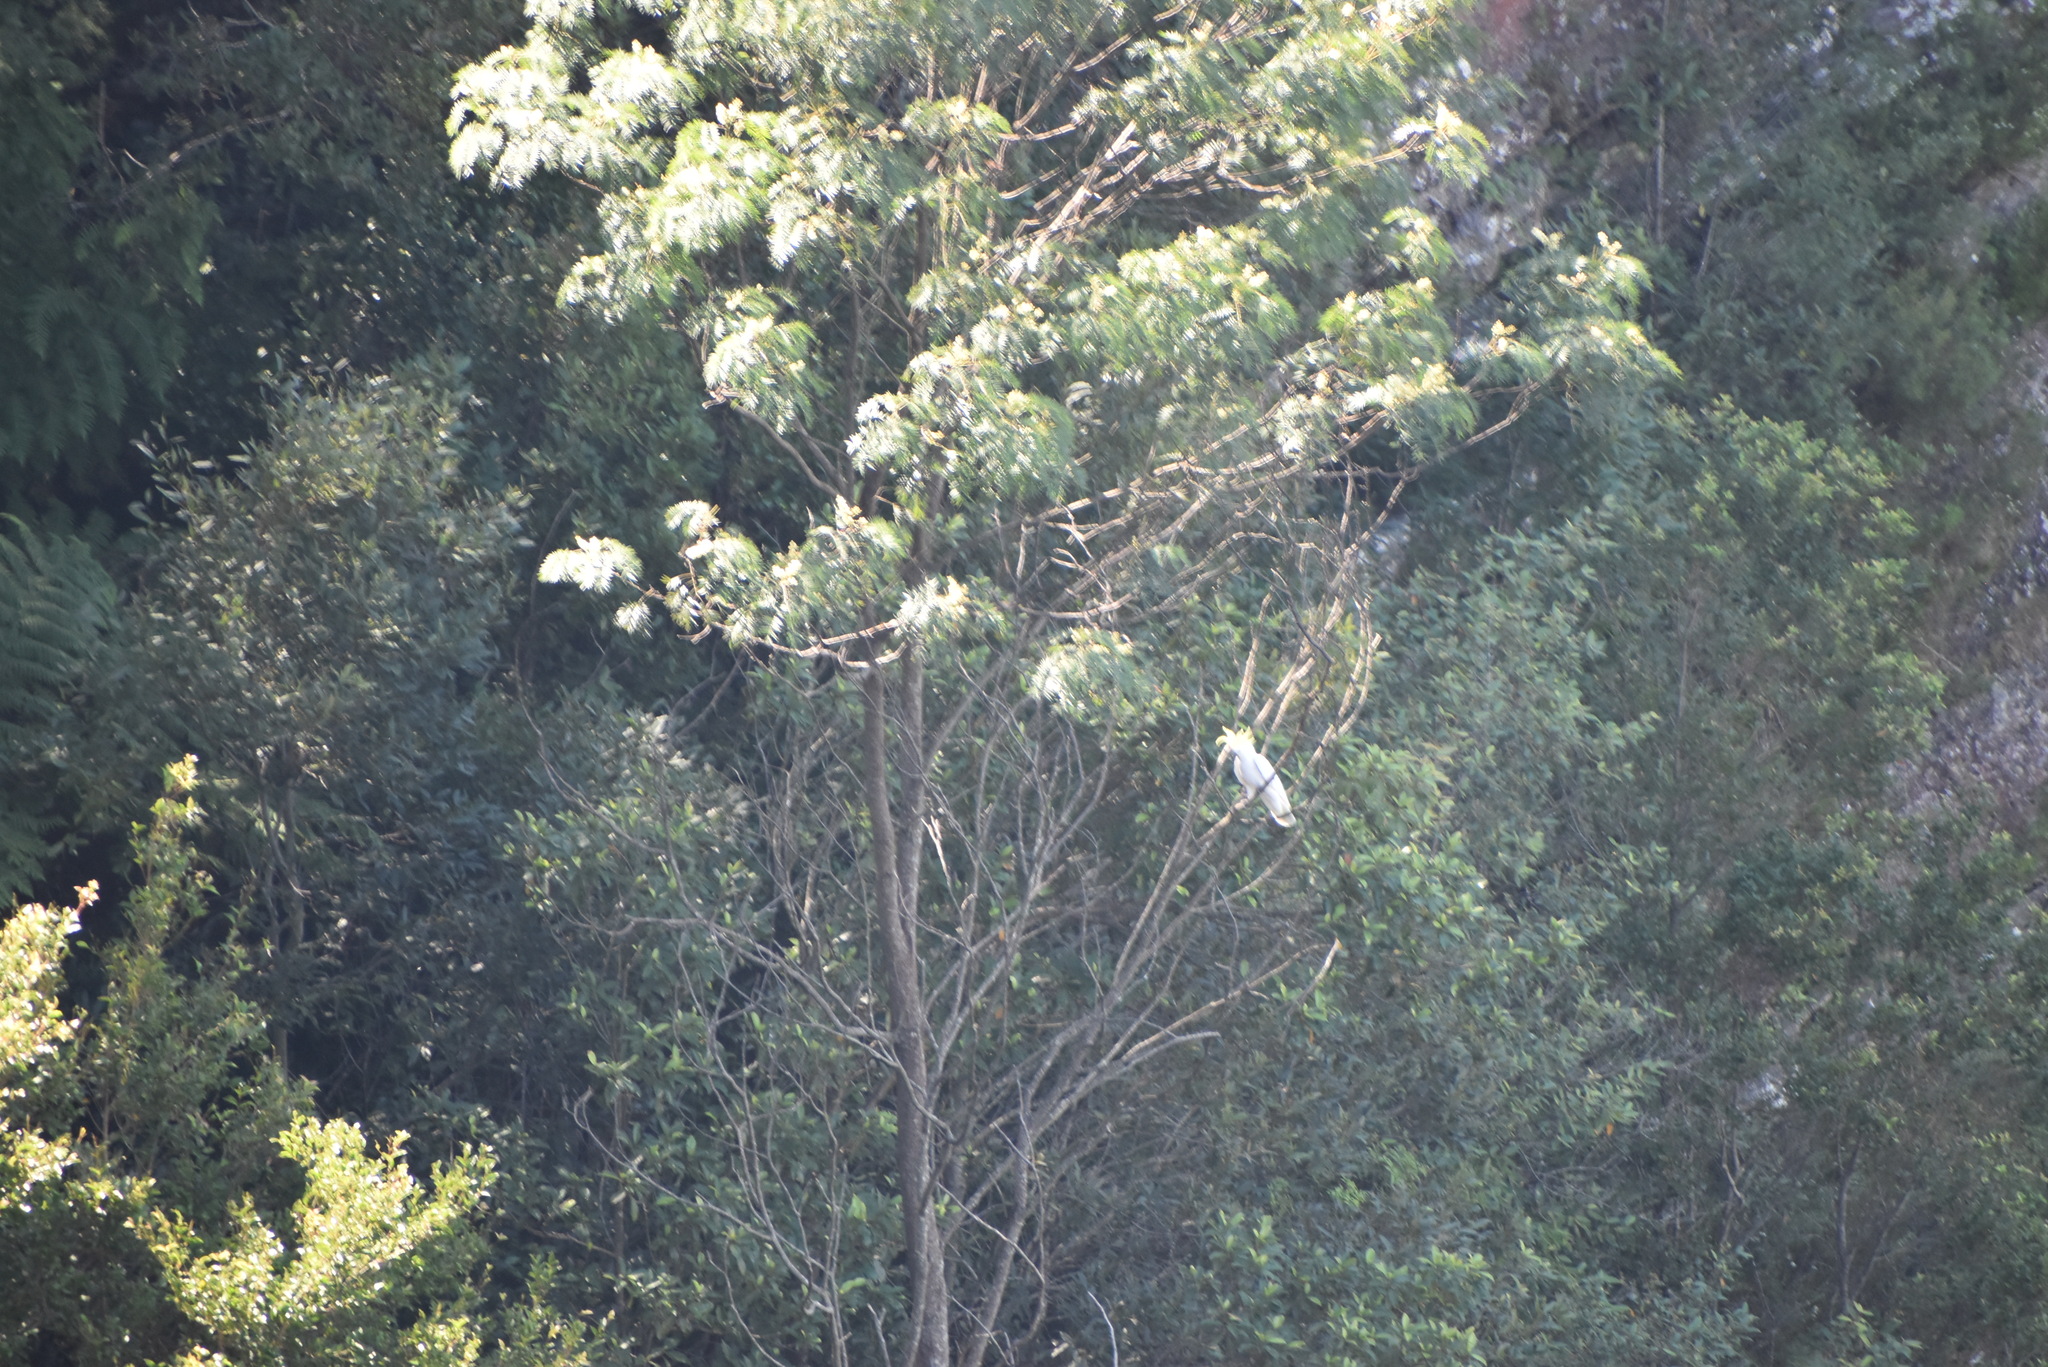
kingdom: Animalia
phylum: Chordata
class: Aves
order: Psittaciformes
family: Psittacidae
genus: Cacatua
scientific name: Cacatua galerita
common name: Sulphur-crested cockatoo
